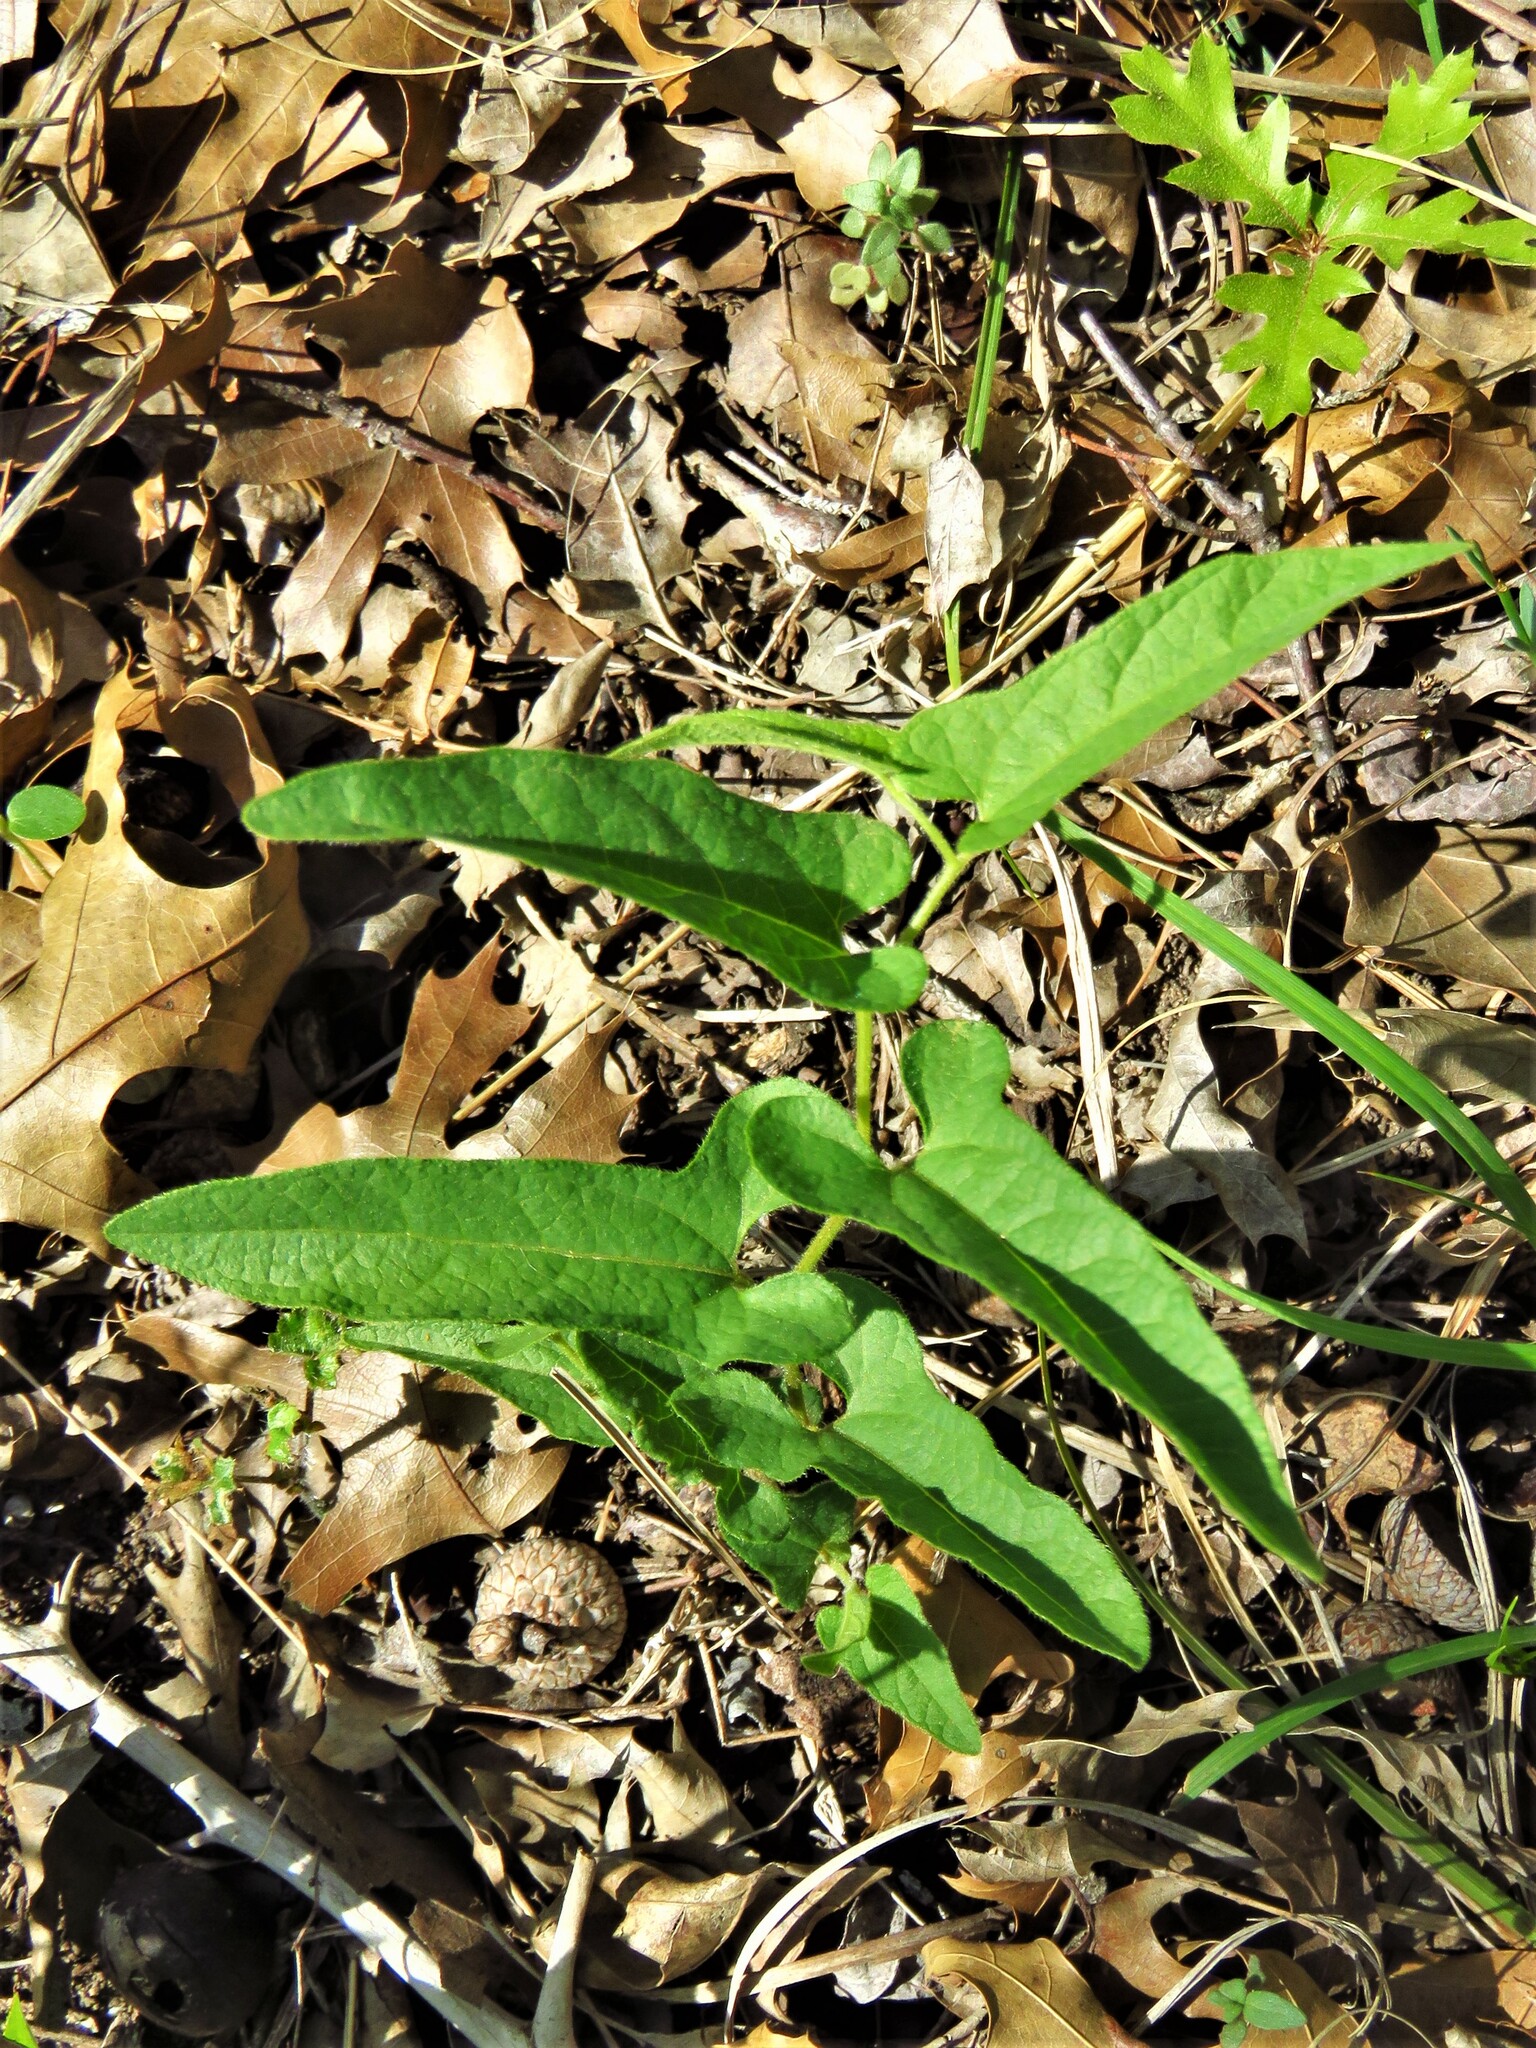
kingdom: Plantae
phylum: Tracheophyta
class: Magnoliopsida
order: Piperales
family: Aristolochiaceae
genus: Endodeca
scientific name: Endodeca serpentaria
